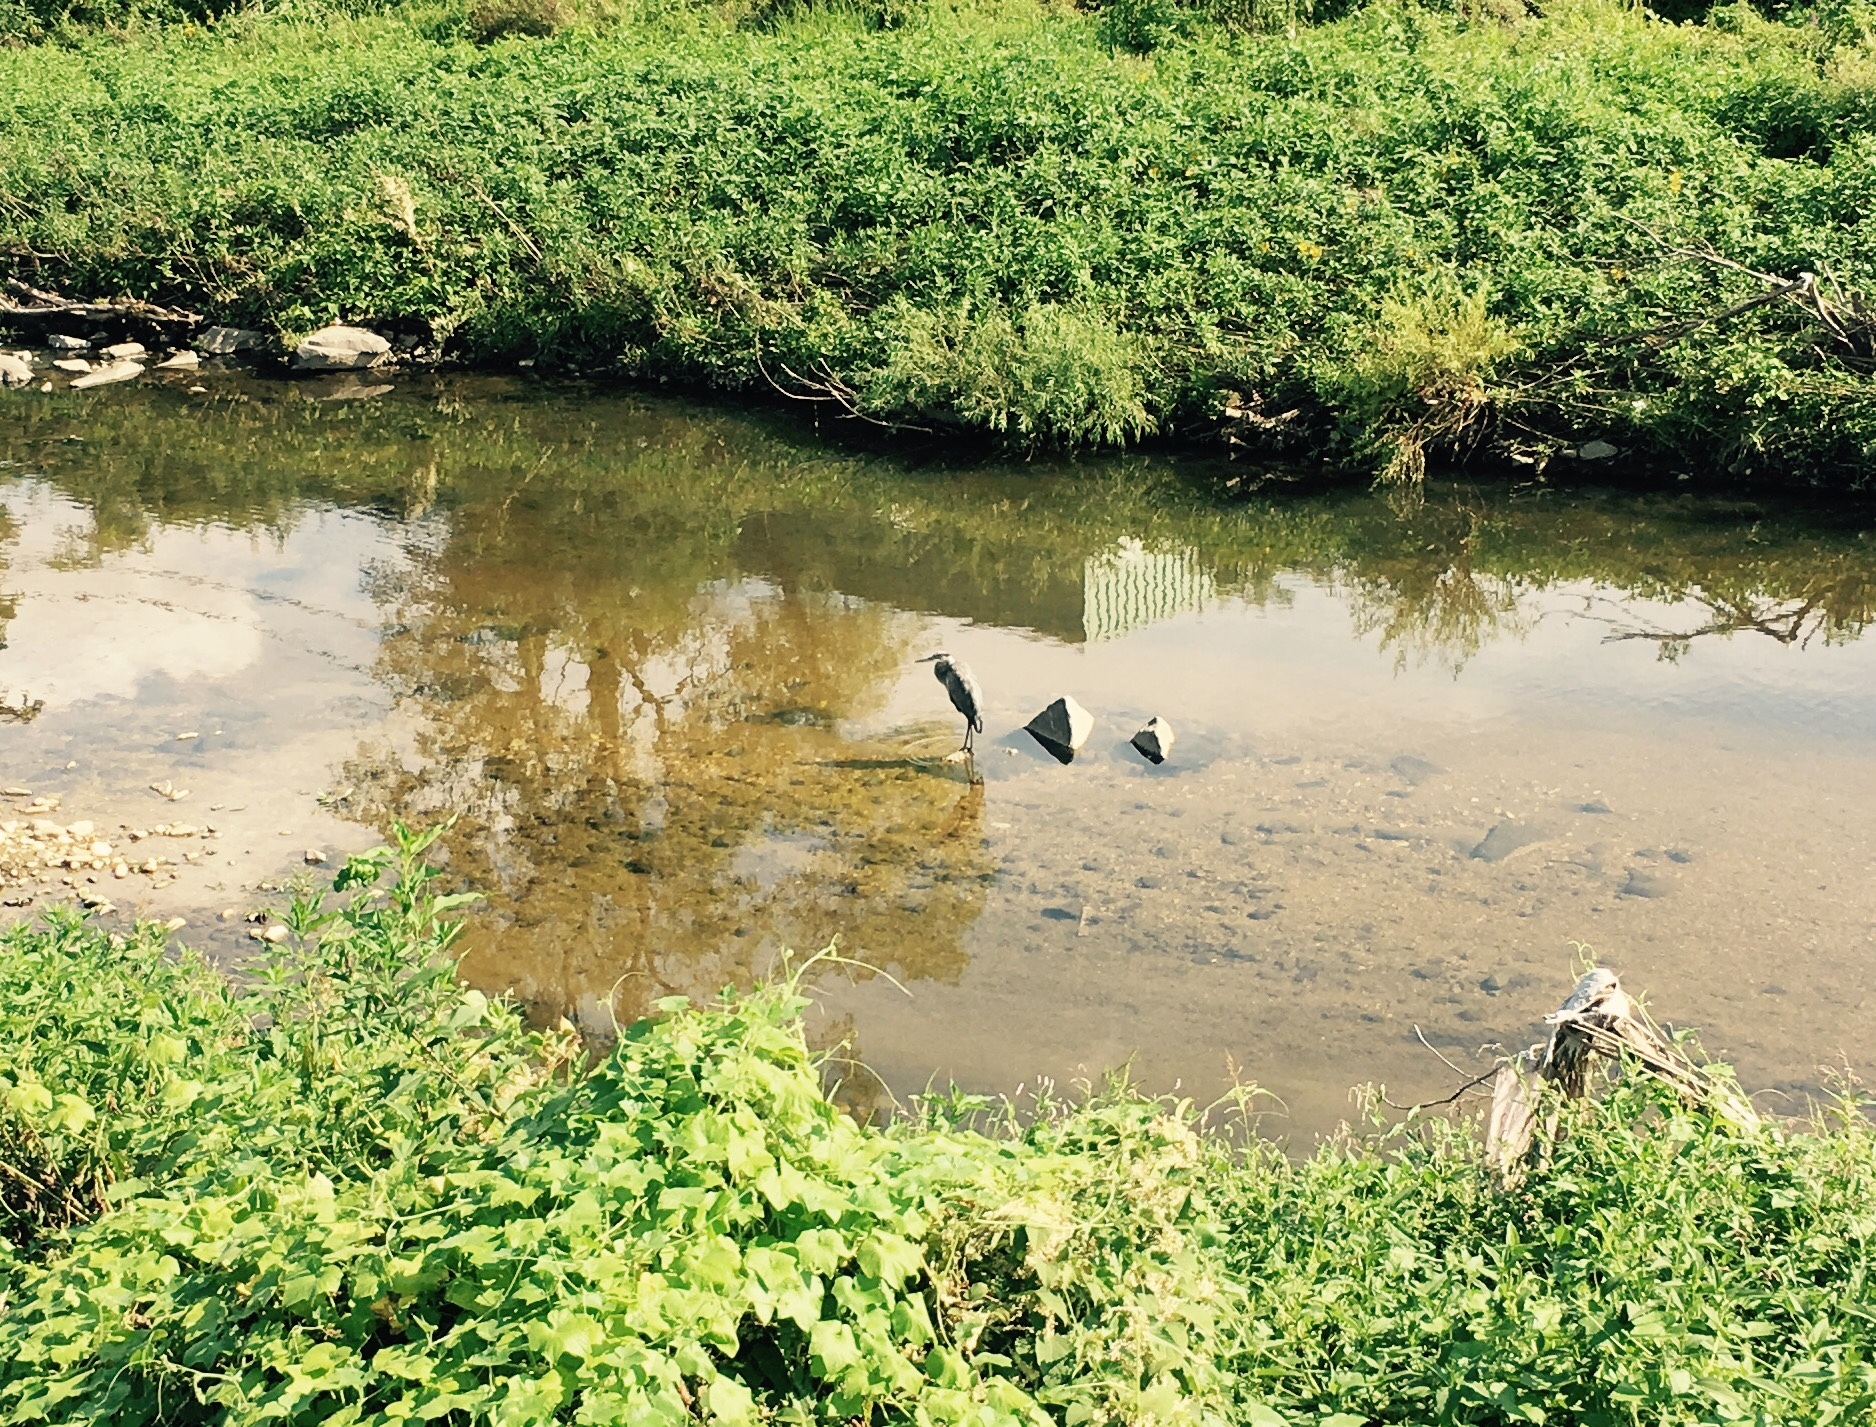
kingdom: Animalia
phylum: Chordata
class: Aves
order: Pelecaniformes
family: Ardeidae
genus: Ardea
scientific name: Ardea herodias
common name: Great blue heron
